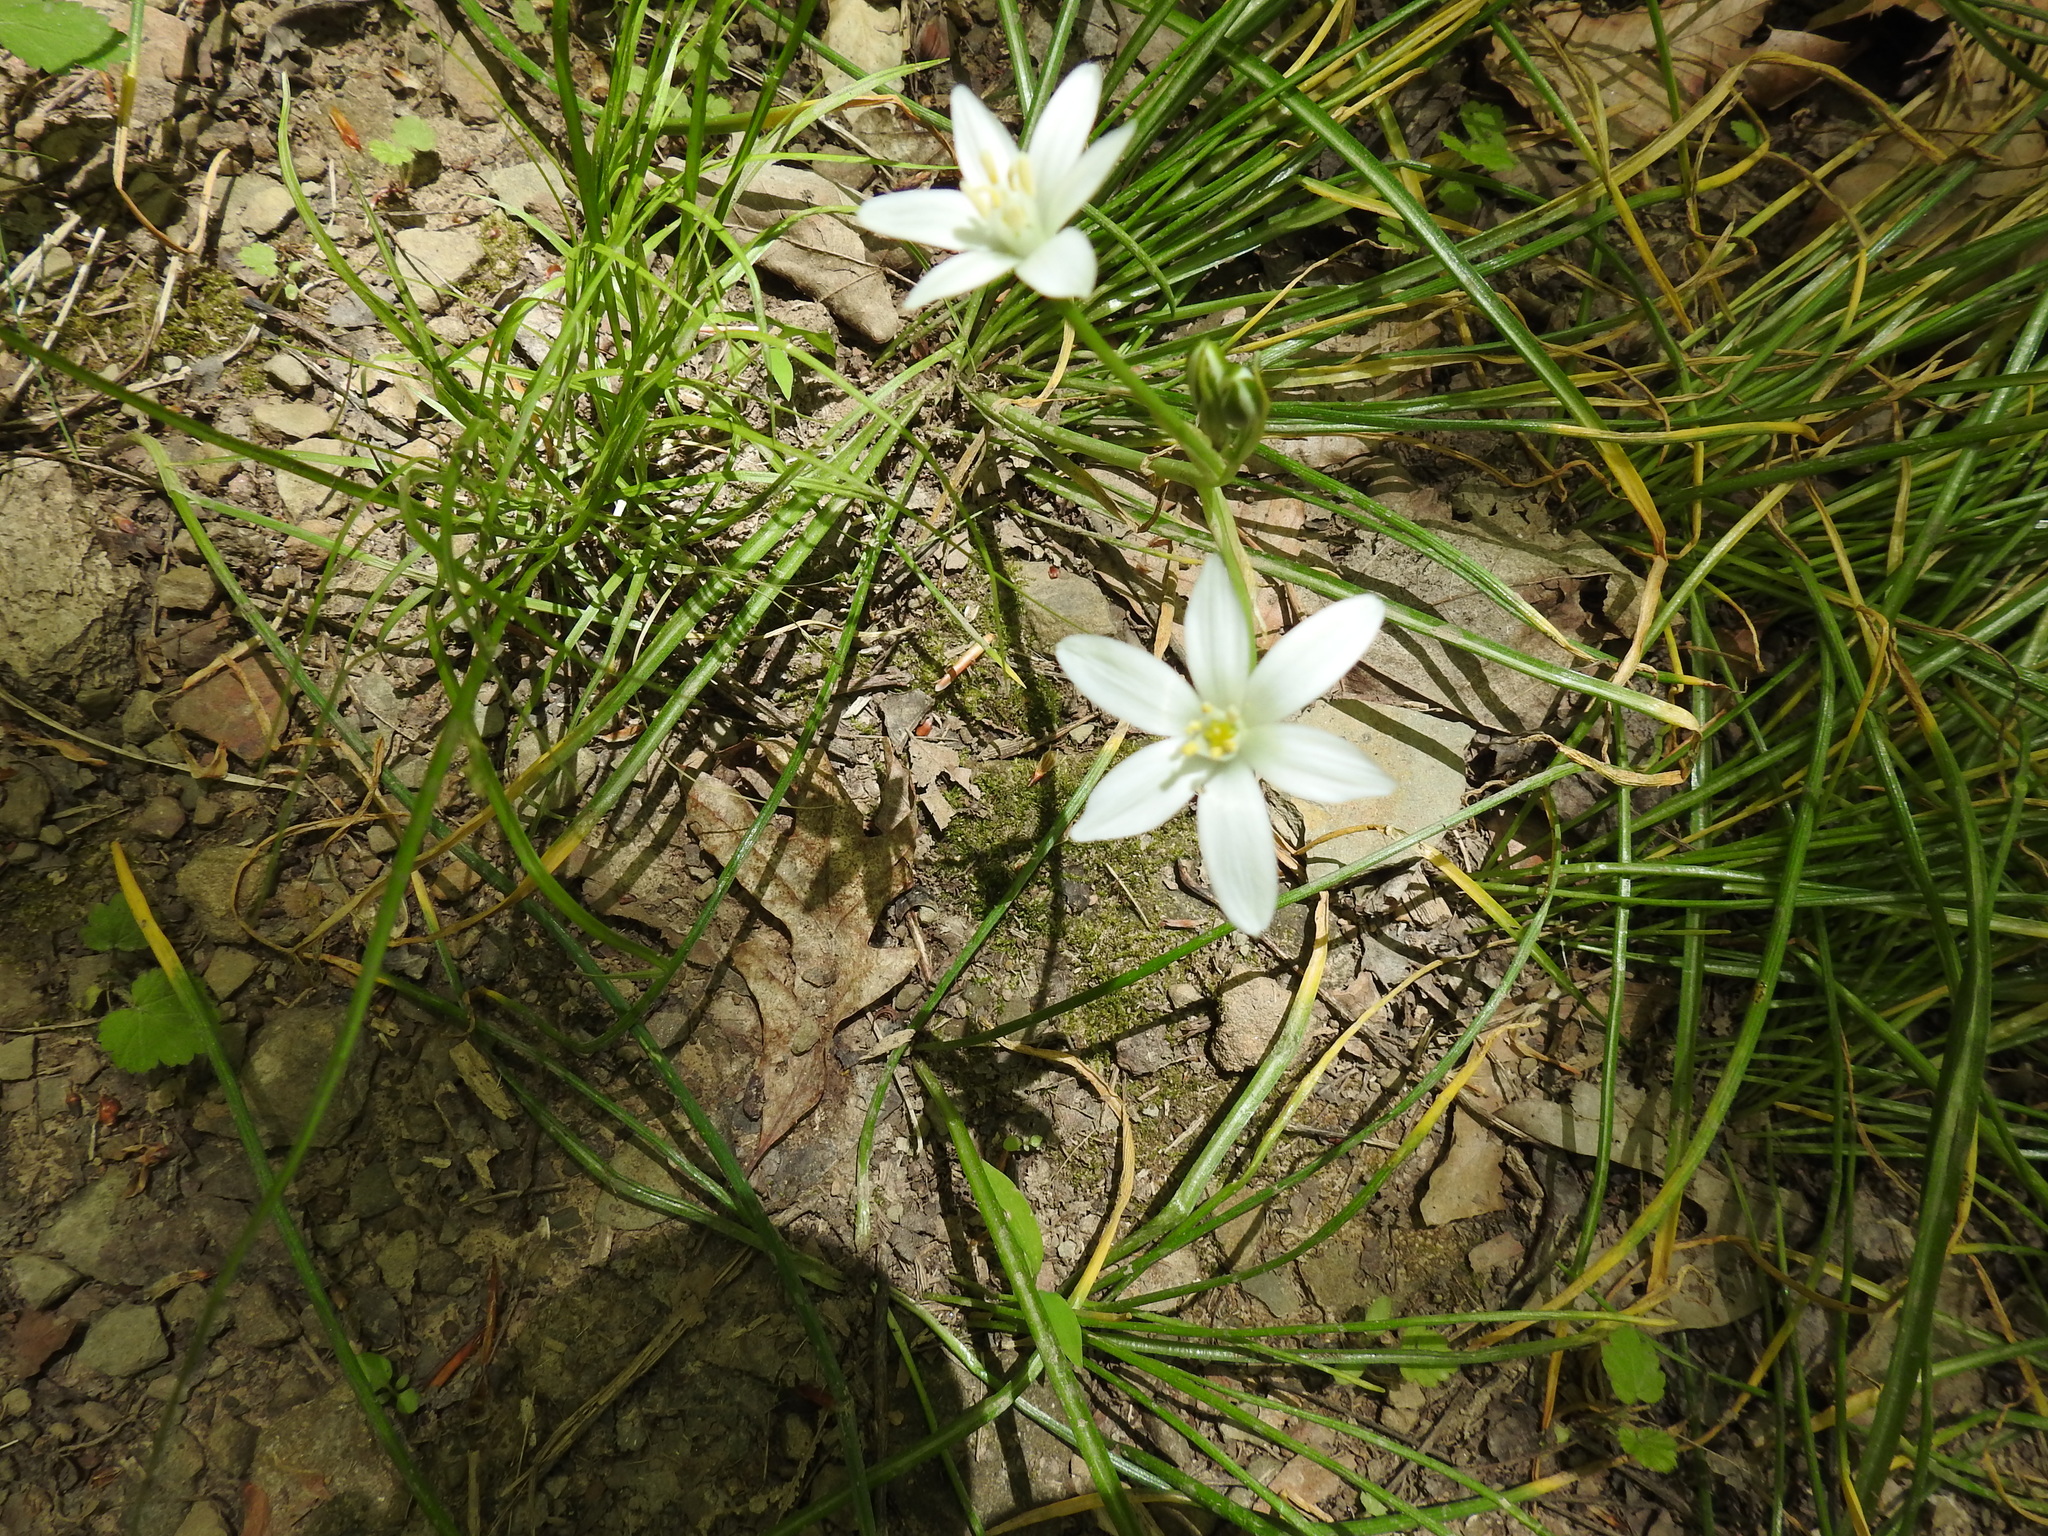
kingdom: Plantae
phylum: Tracheophyta
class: Liliopsida
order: Asparagales
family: Asparagaceae
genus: Ornithogalum
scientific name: Ornithogalum umbellatum
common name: Garden star-of-bethlehem
